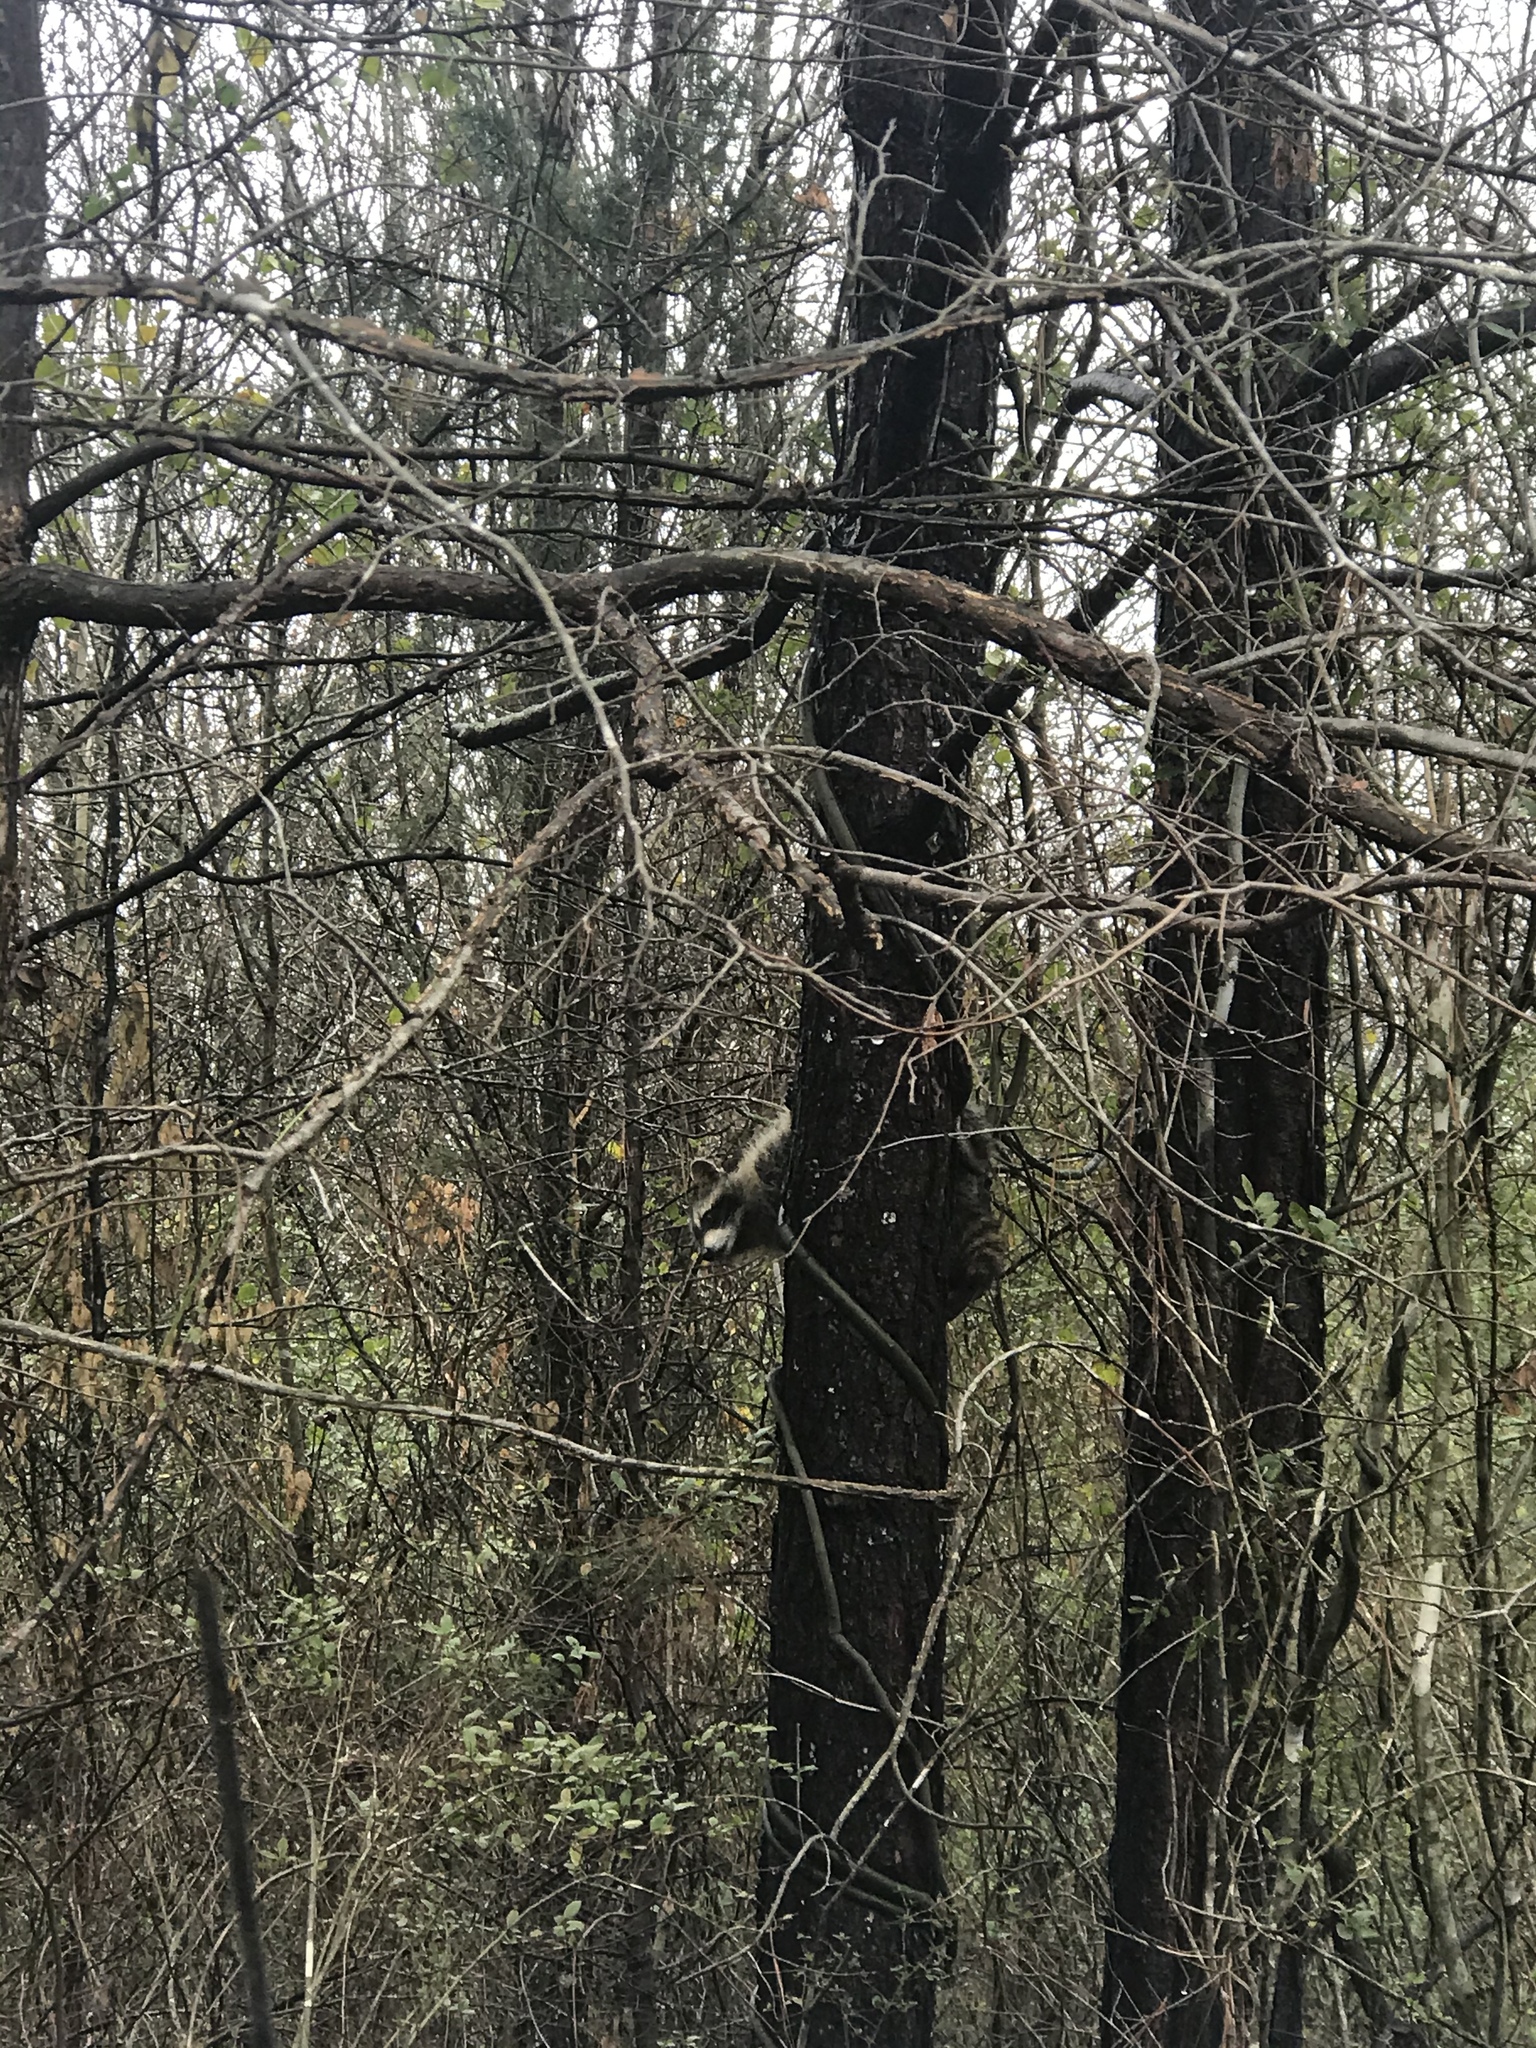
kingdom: Animalia
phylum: Chordata
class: Mammalia
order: Carnivora
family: Procyonidae
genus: Procyon
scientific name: Procyon lotor
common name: Raccoon
